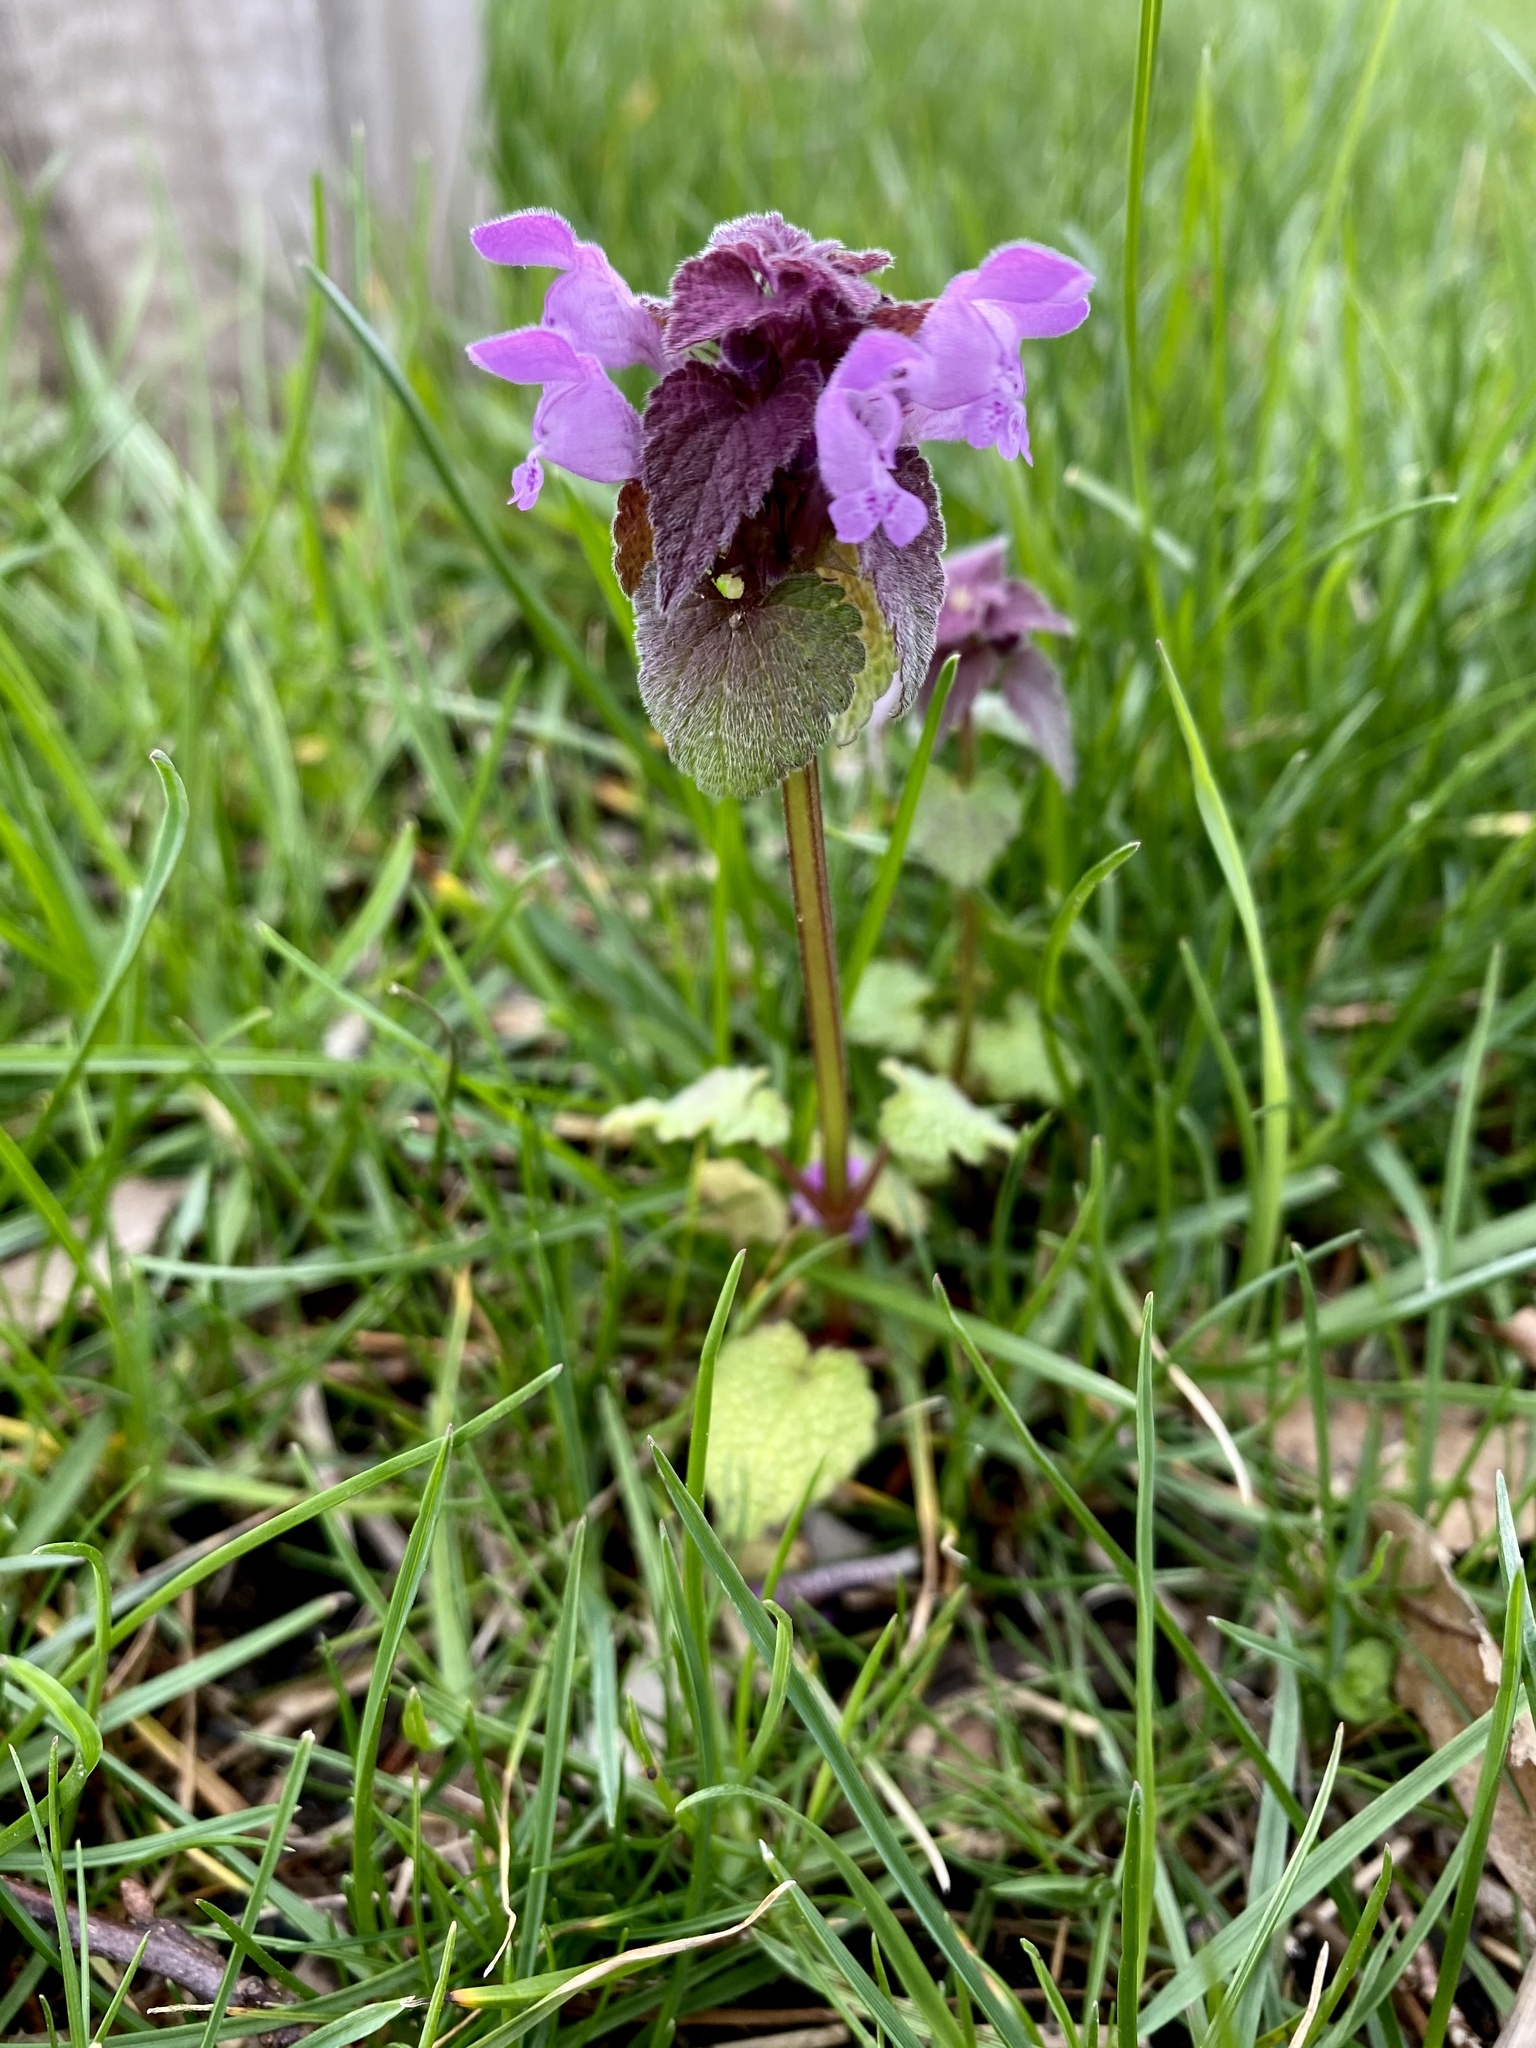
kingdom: Plantae
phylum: Tracheophyta
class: Magnoliopsida
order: Lamiales
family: Lamiaceae
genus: Lamium
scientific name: Lamium purpureum
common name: Red dead-nettle
